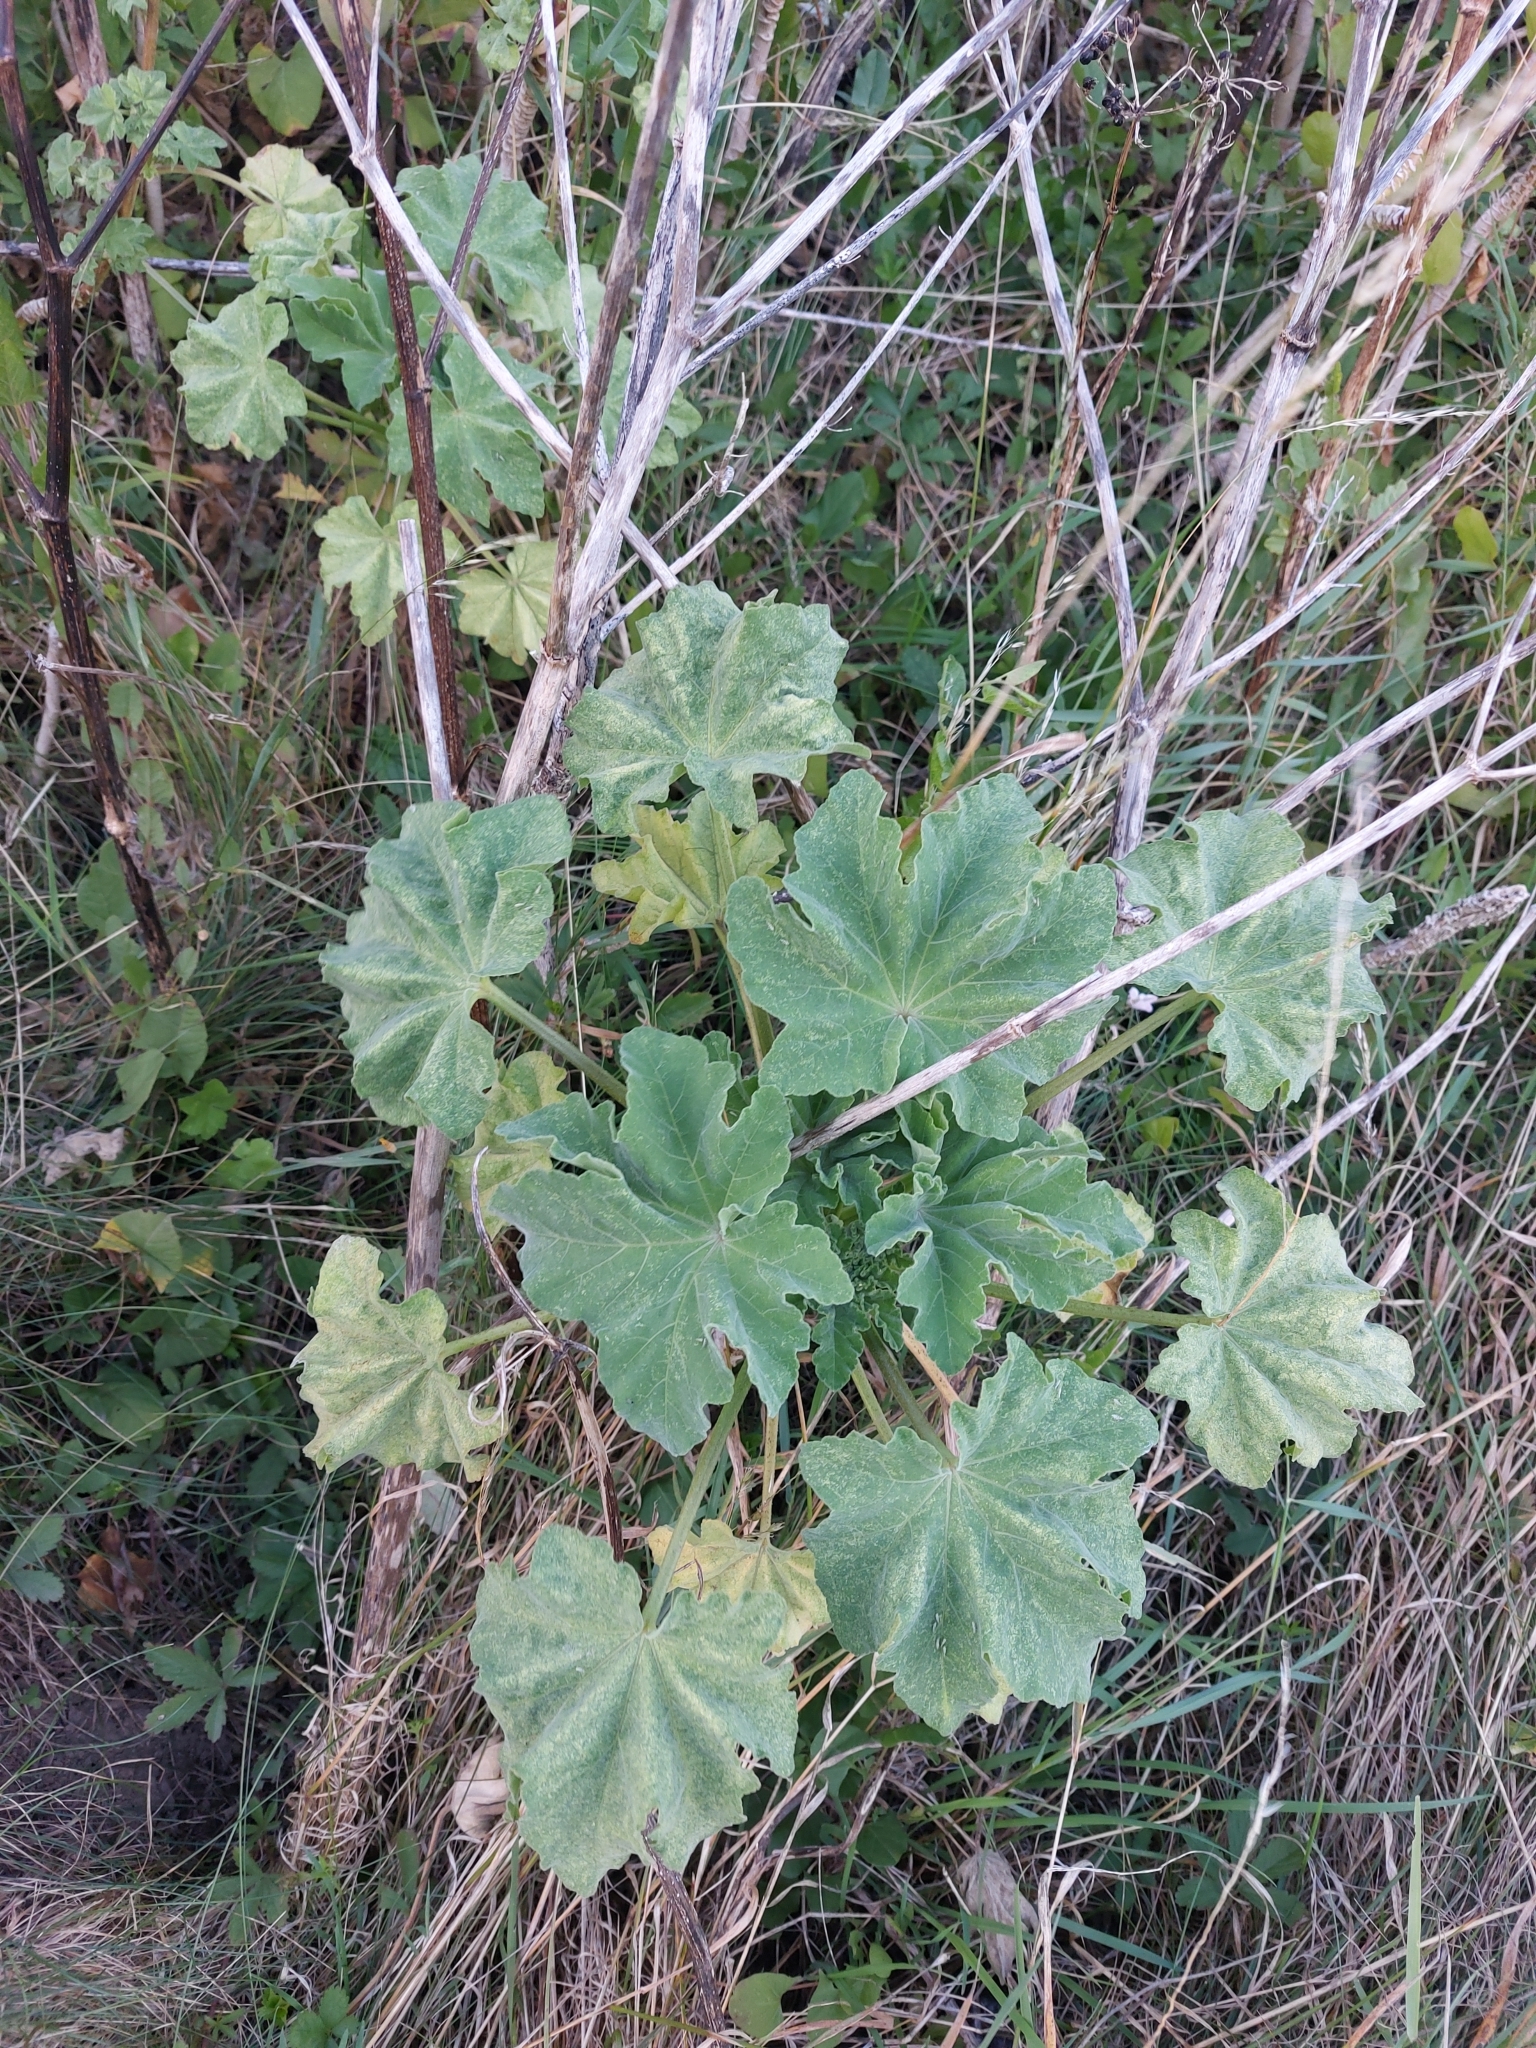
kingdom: Plantae
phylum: Tracheophyta
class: Magnoliopsida
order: Malvales
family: Malvaceae
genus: Malva
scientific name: Malva arborea
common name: Tree mallow
